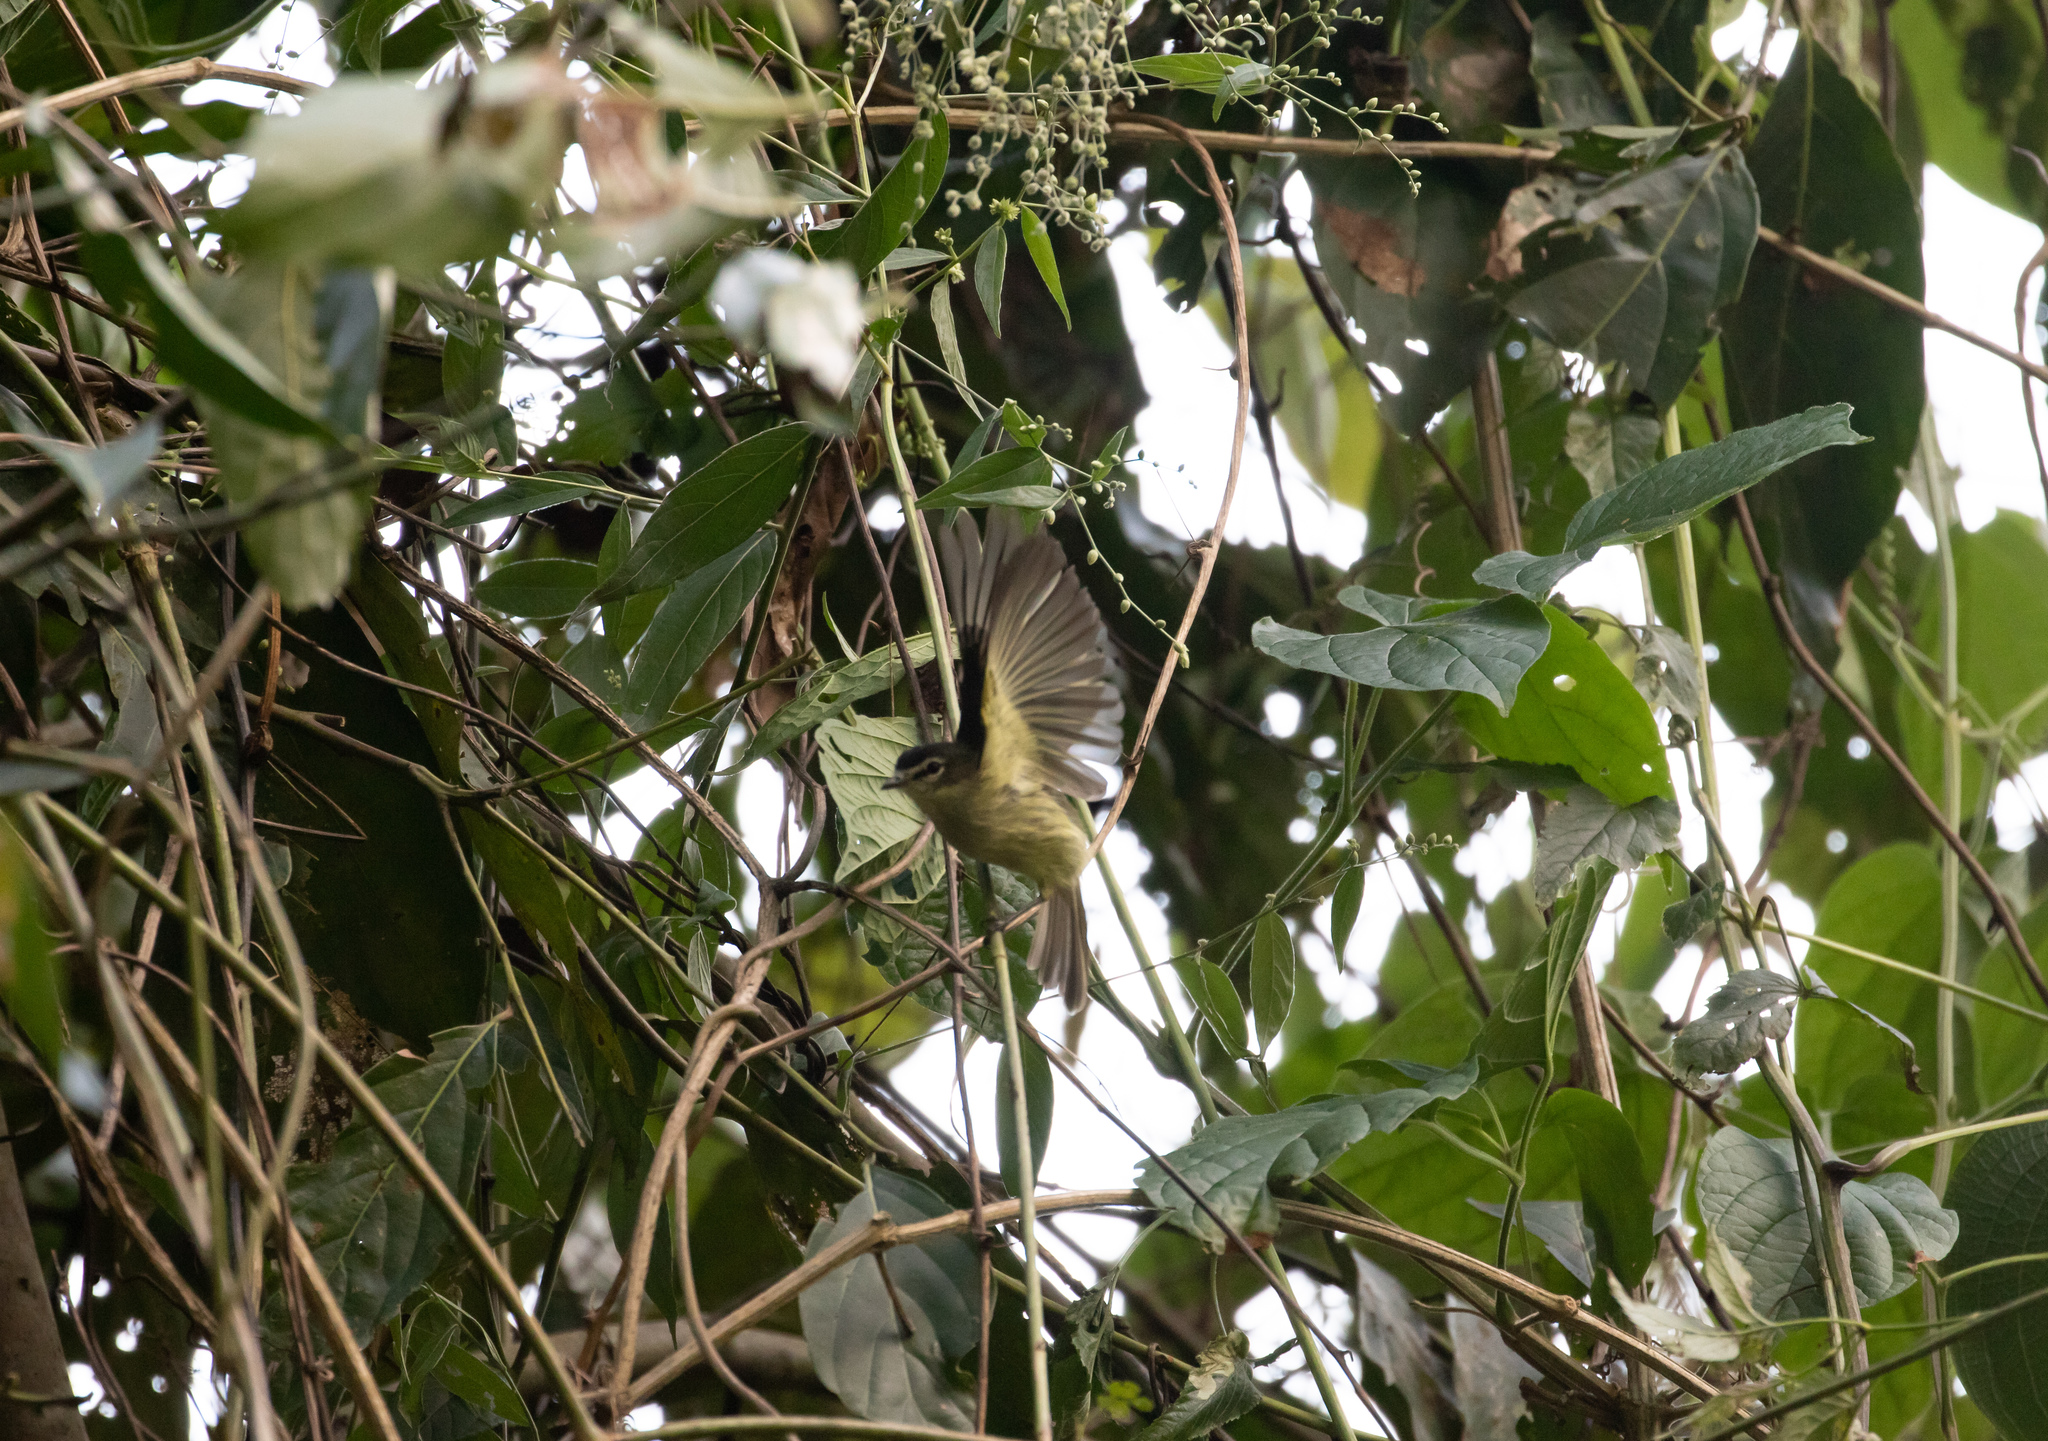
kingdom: Animalia
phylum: Chordata
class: Aves
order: Passeriformes
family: Tyrannidae
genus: Zimmerius
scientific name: Zimmerius vilissimus
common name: Paltry tyrannulet
